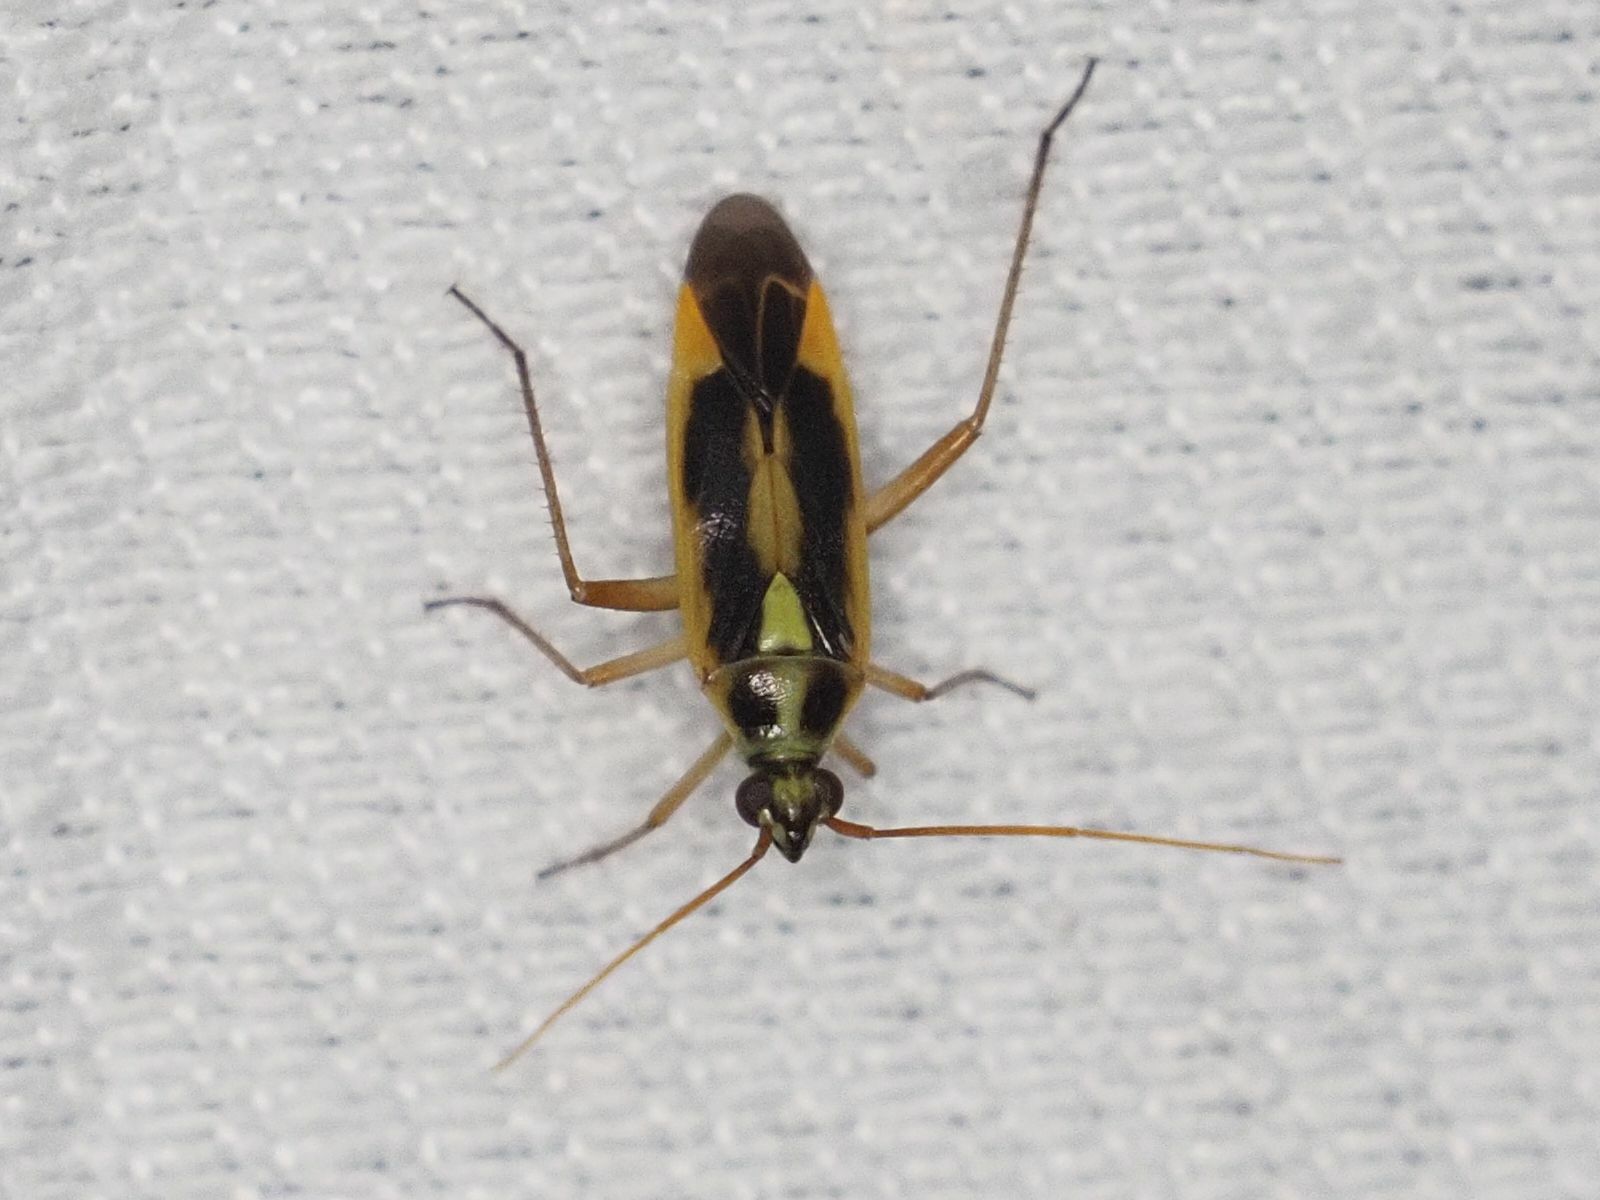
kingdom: Animalia
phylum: Arthropoda
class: Insecta
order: Hemiptera
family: Miridae
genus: Stenotus
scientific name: Stenotus binotatus
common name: Plant bug
